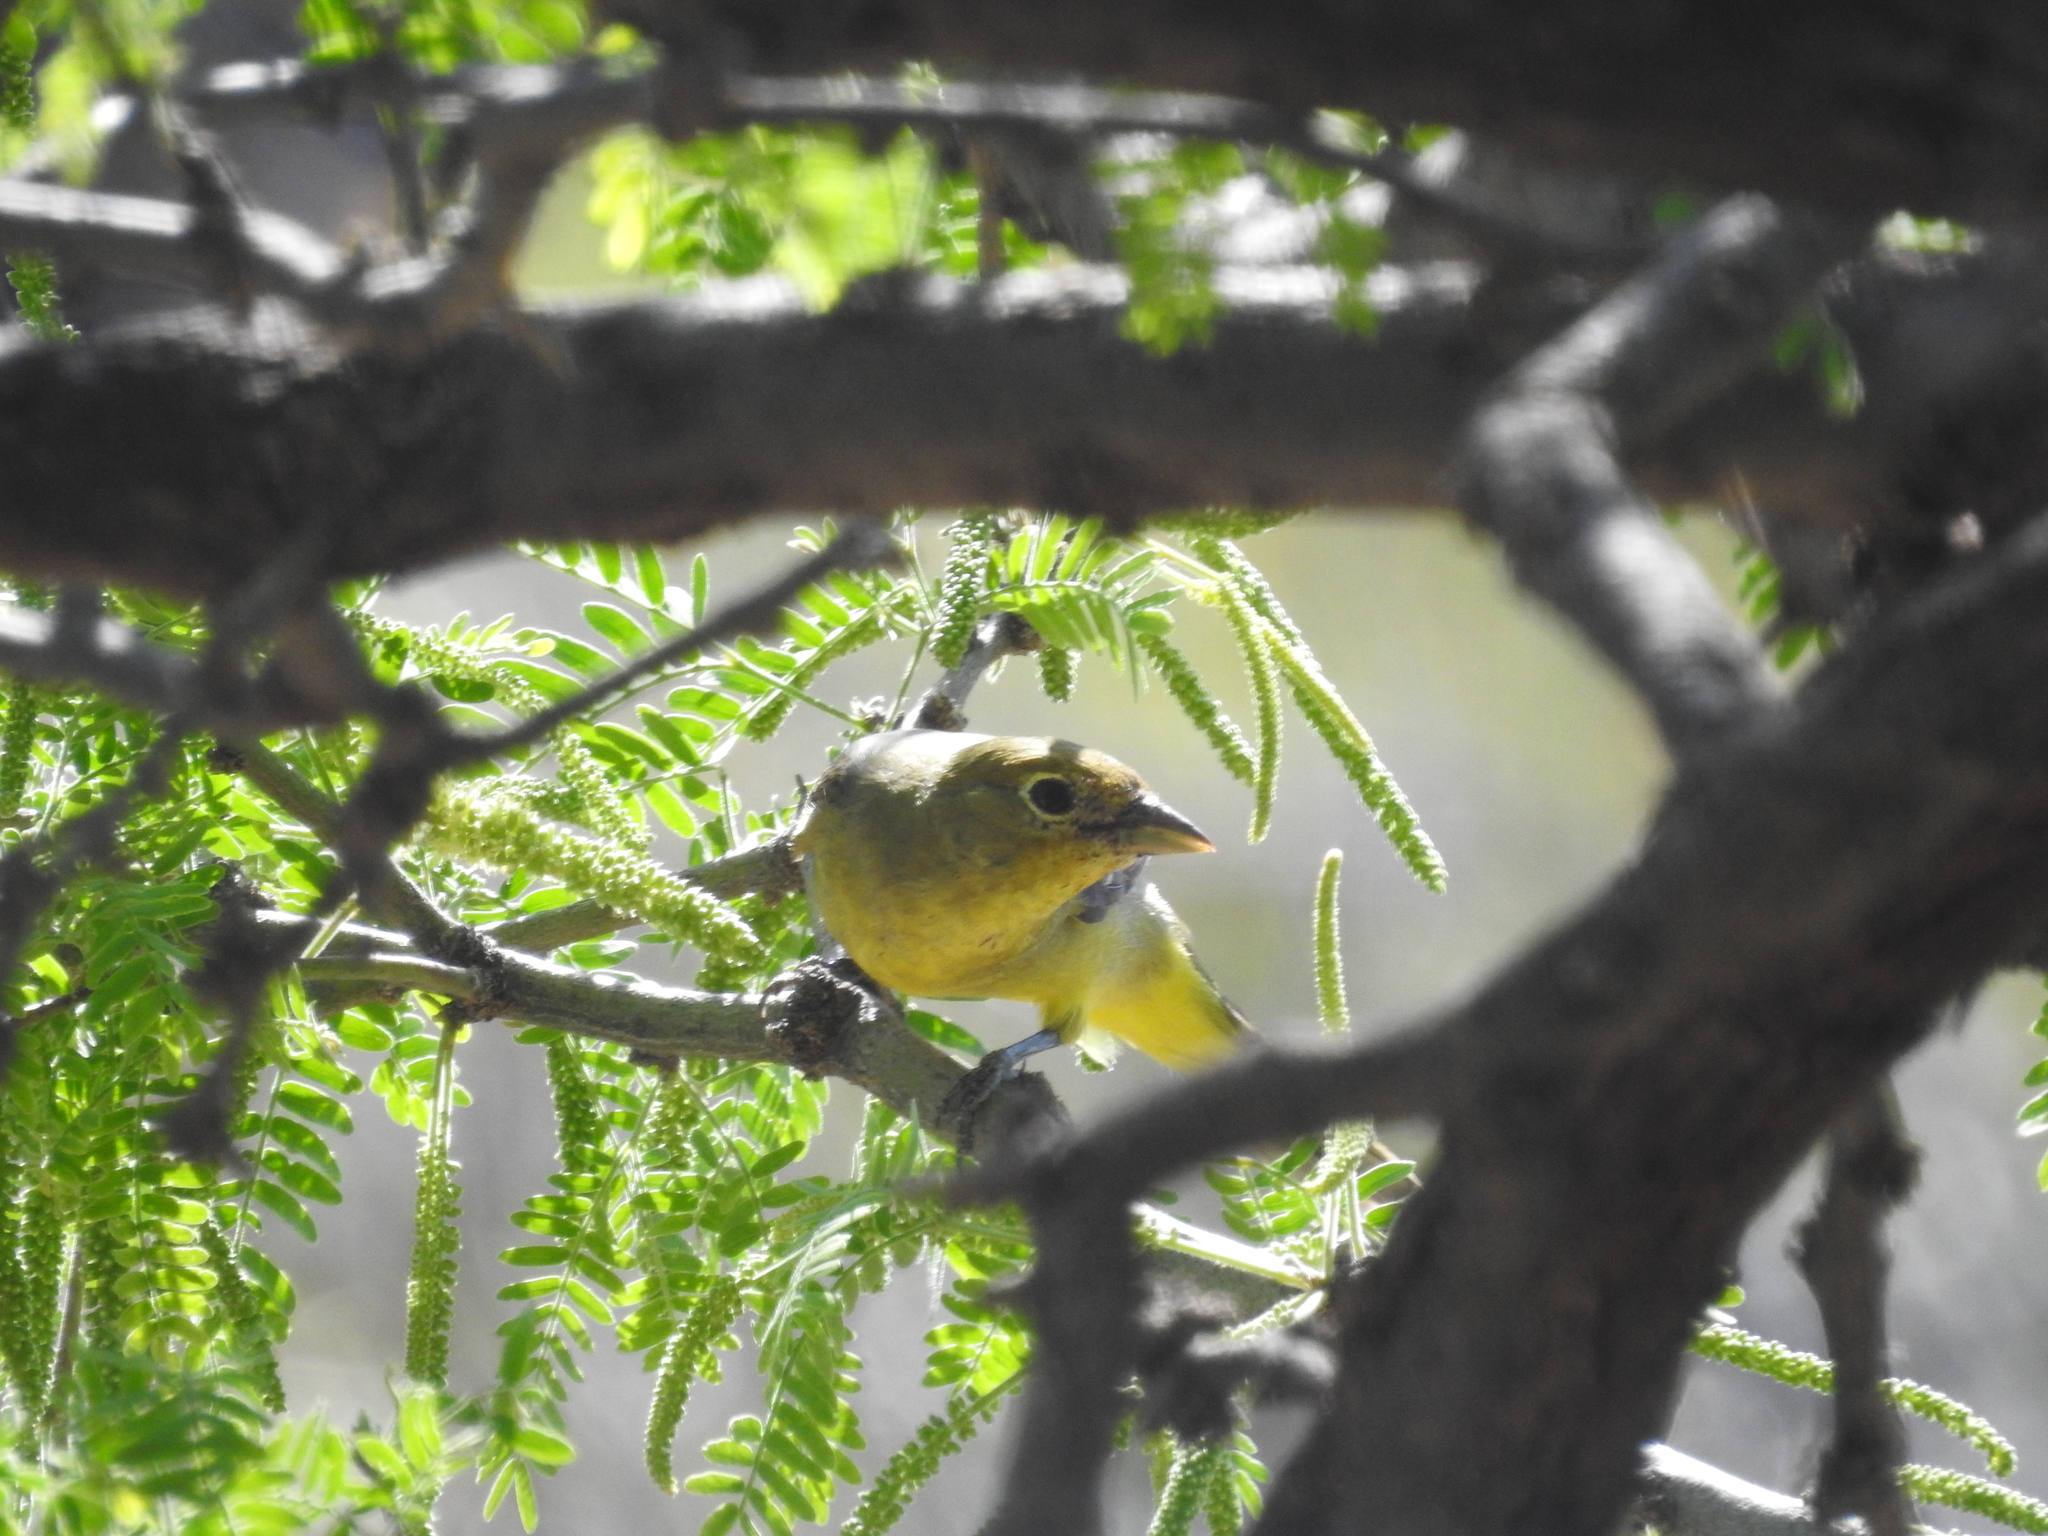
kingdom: Animalia
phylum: Chordata
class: Aves
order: Passeriformes
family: Cardinalidae
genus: Piranga
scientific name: Piranga ludoviciana
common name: Western tanager
